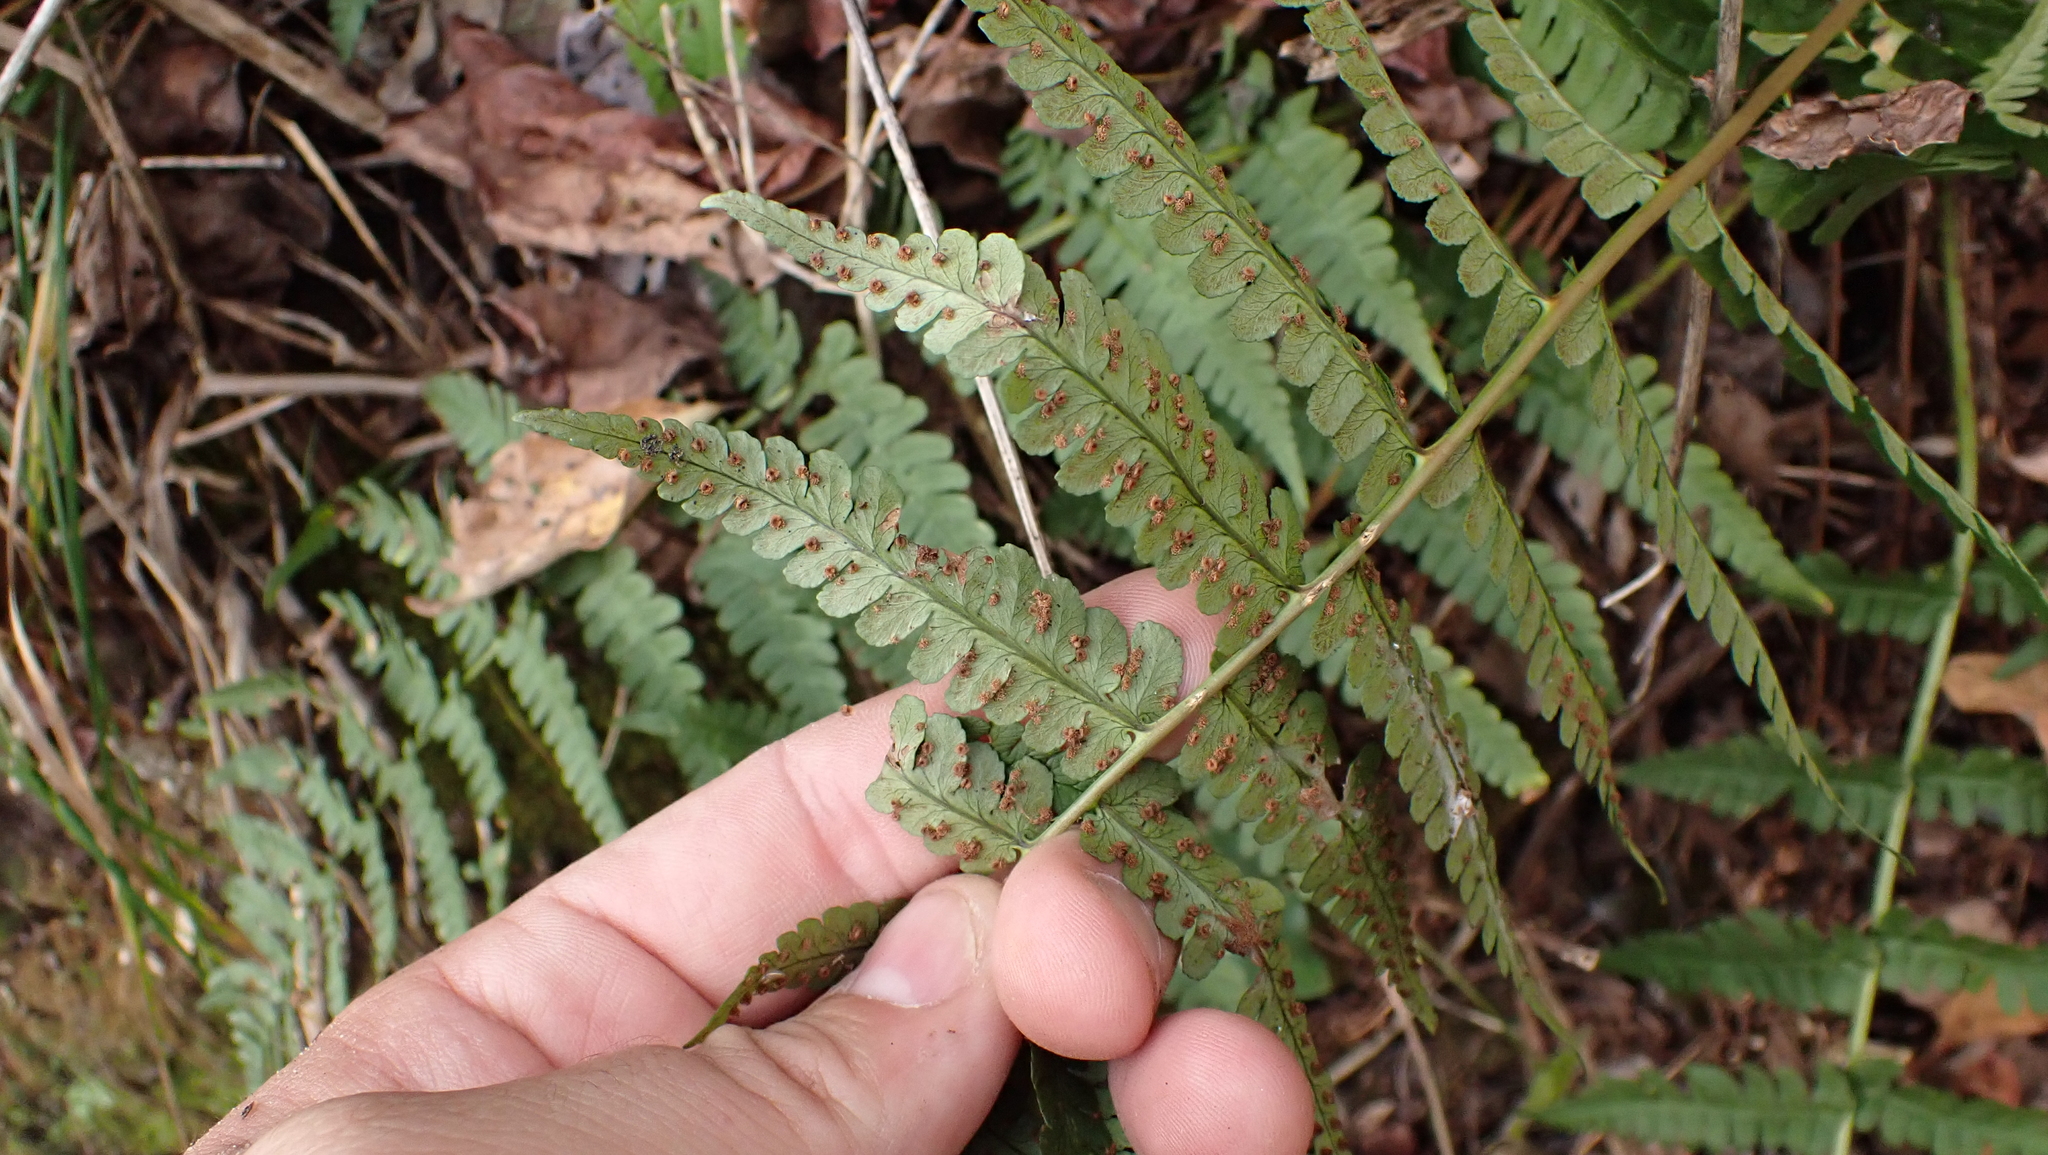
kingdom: Plantae
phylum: Tracheophyta
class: Polypodiopsida
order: Polypodiales
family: Dryopteridaceae
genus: Dryopteris
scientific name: Dryopteris marginalis
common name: Marginal wood fern
